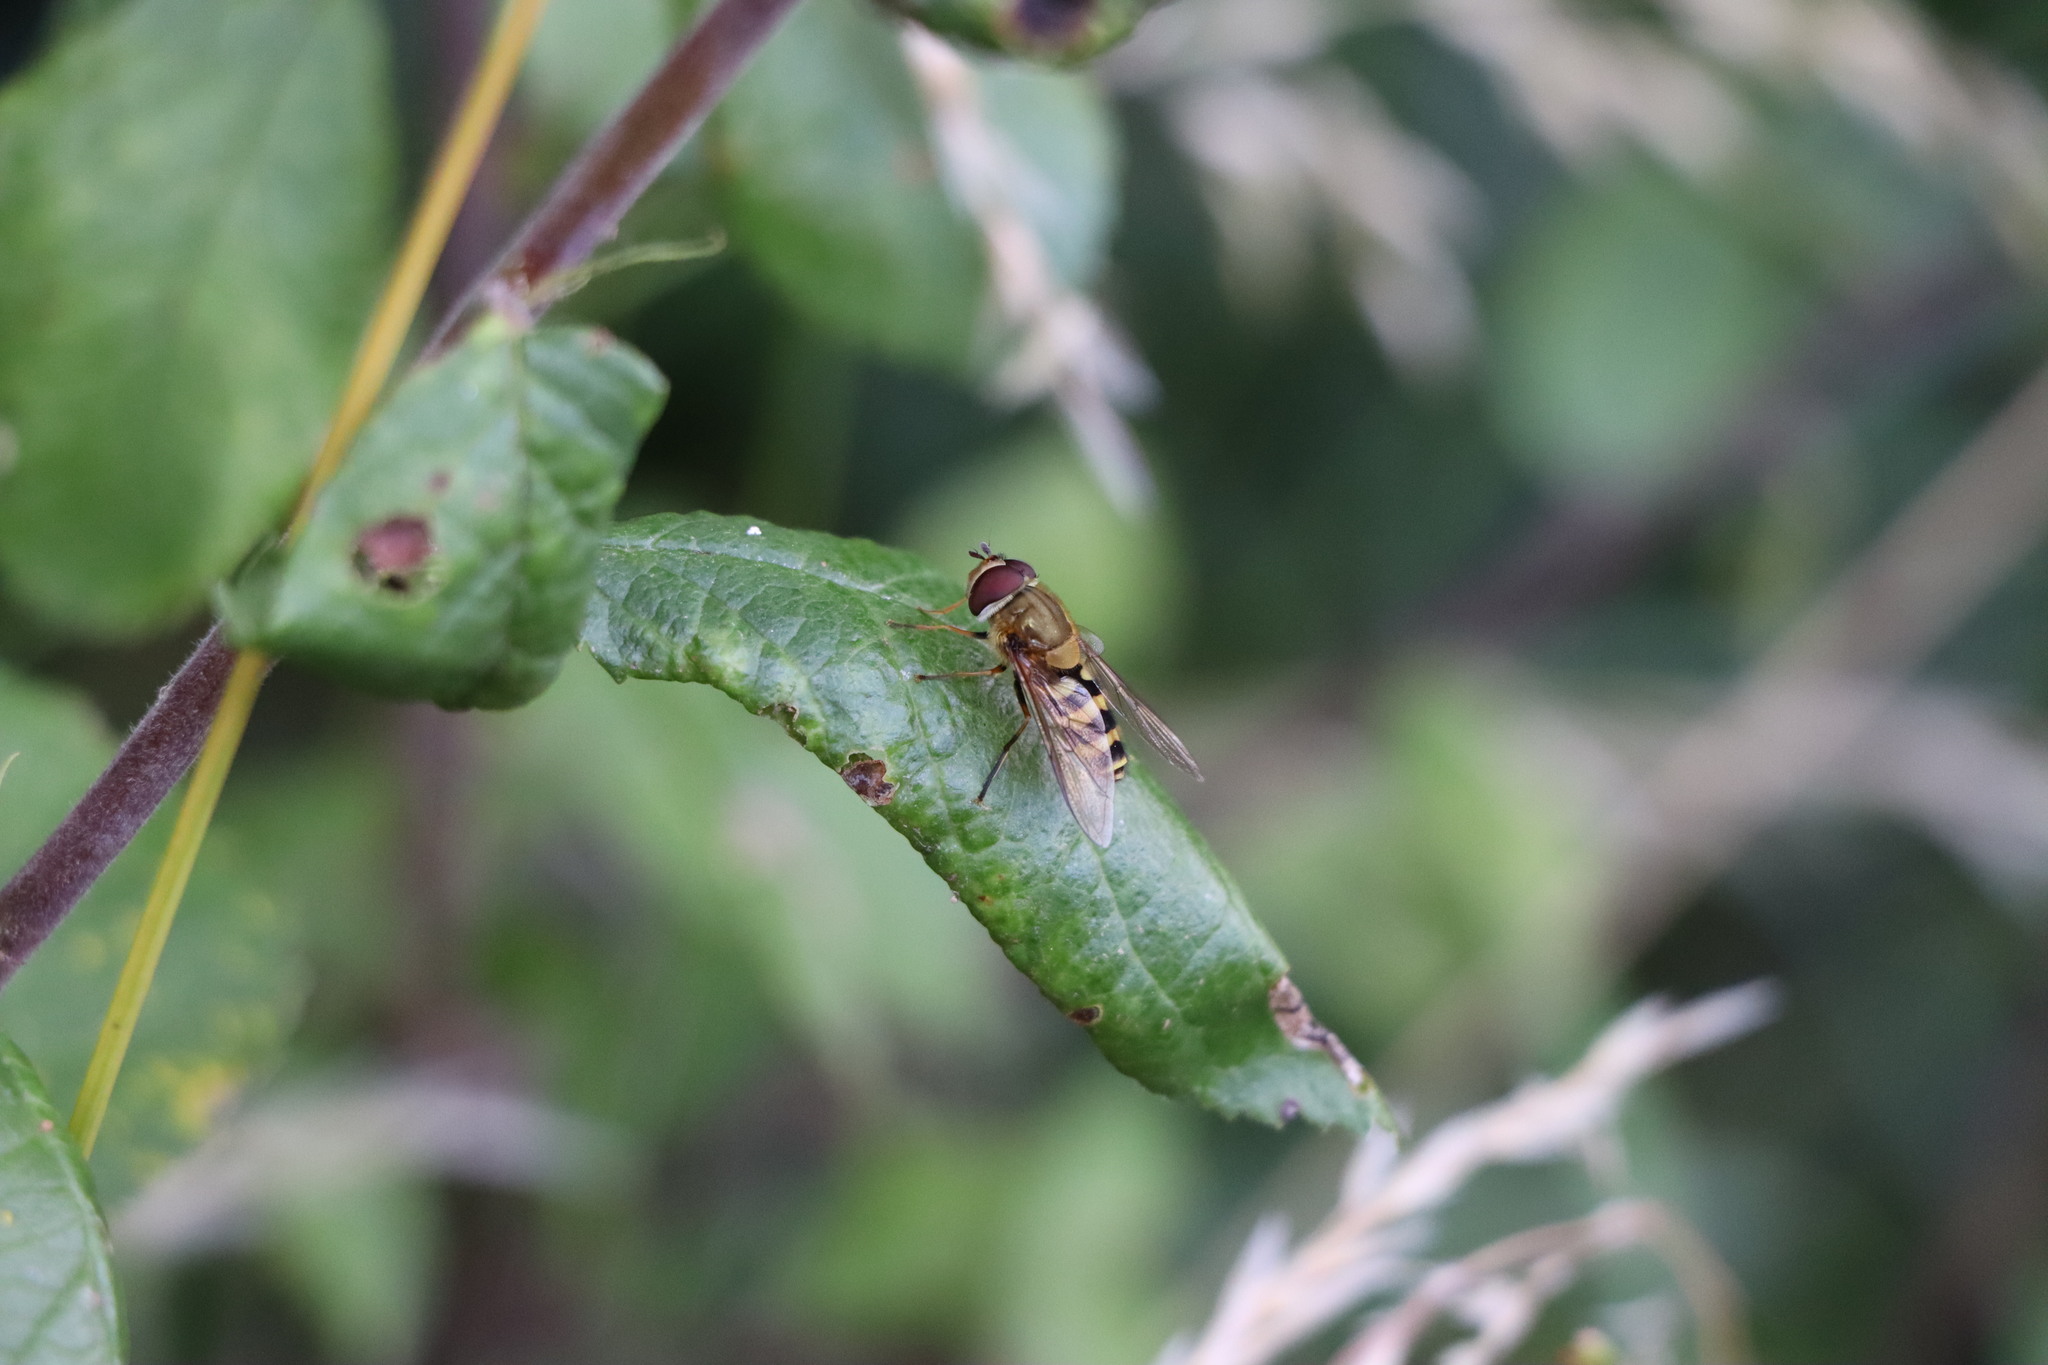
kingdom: Animalia
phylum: Arthropoda
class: Insecta
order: Diptera
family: Syrphidae
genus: Syrphus
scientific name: Syrphus
